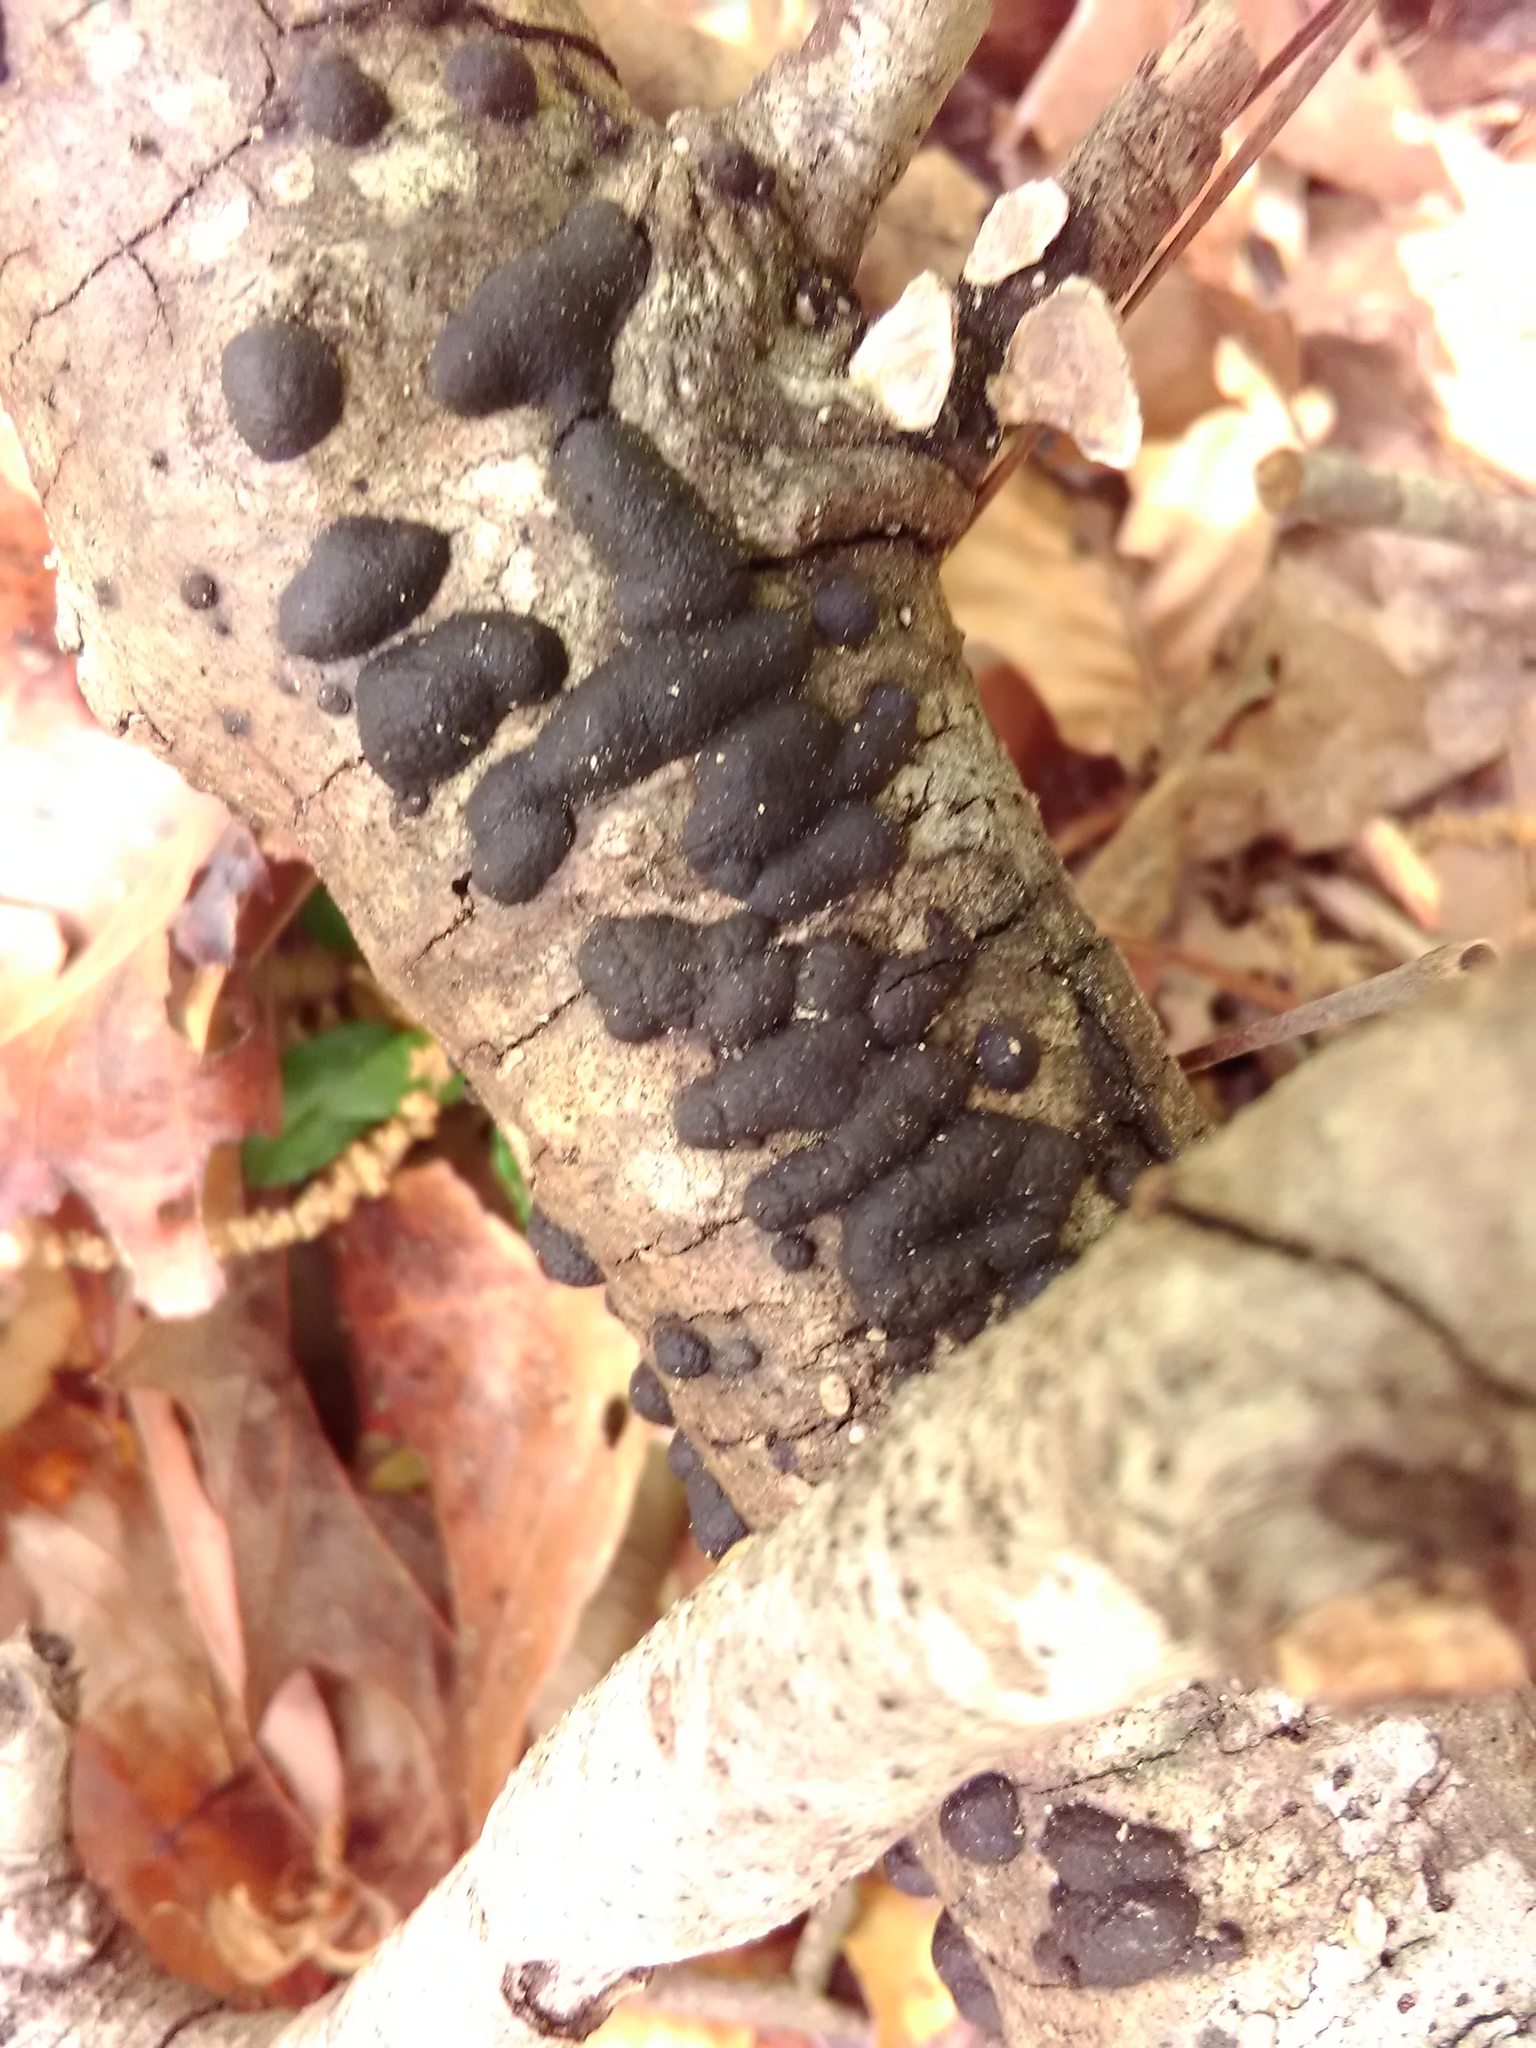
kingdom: Fungi
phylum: Ascomycota
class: Sordariomycetes
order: Xylariales
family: Hypoxylaceae
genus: Annulohypoxylon
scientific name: Annulohypoxylon thouarsianum
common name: Cramp balls
